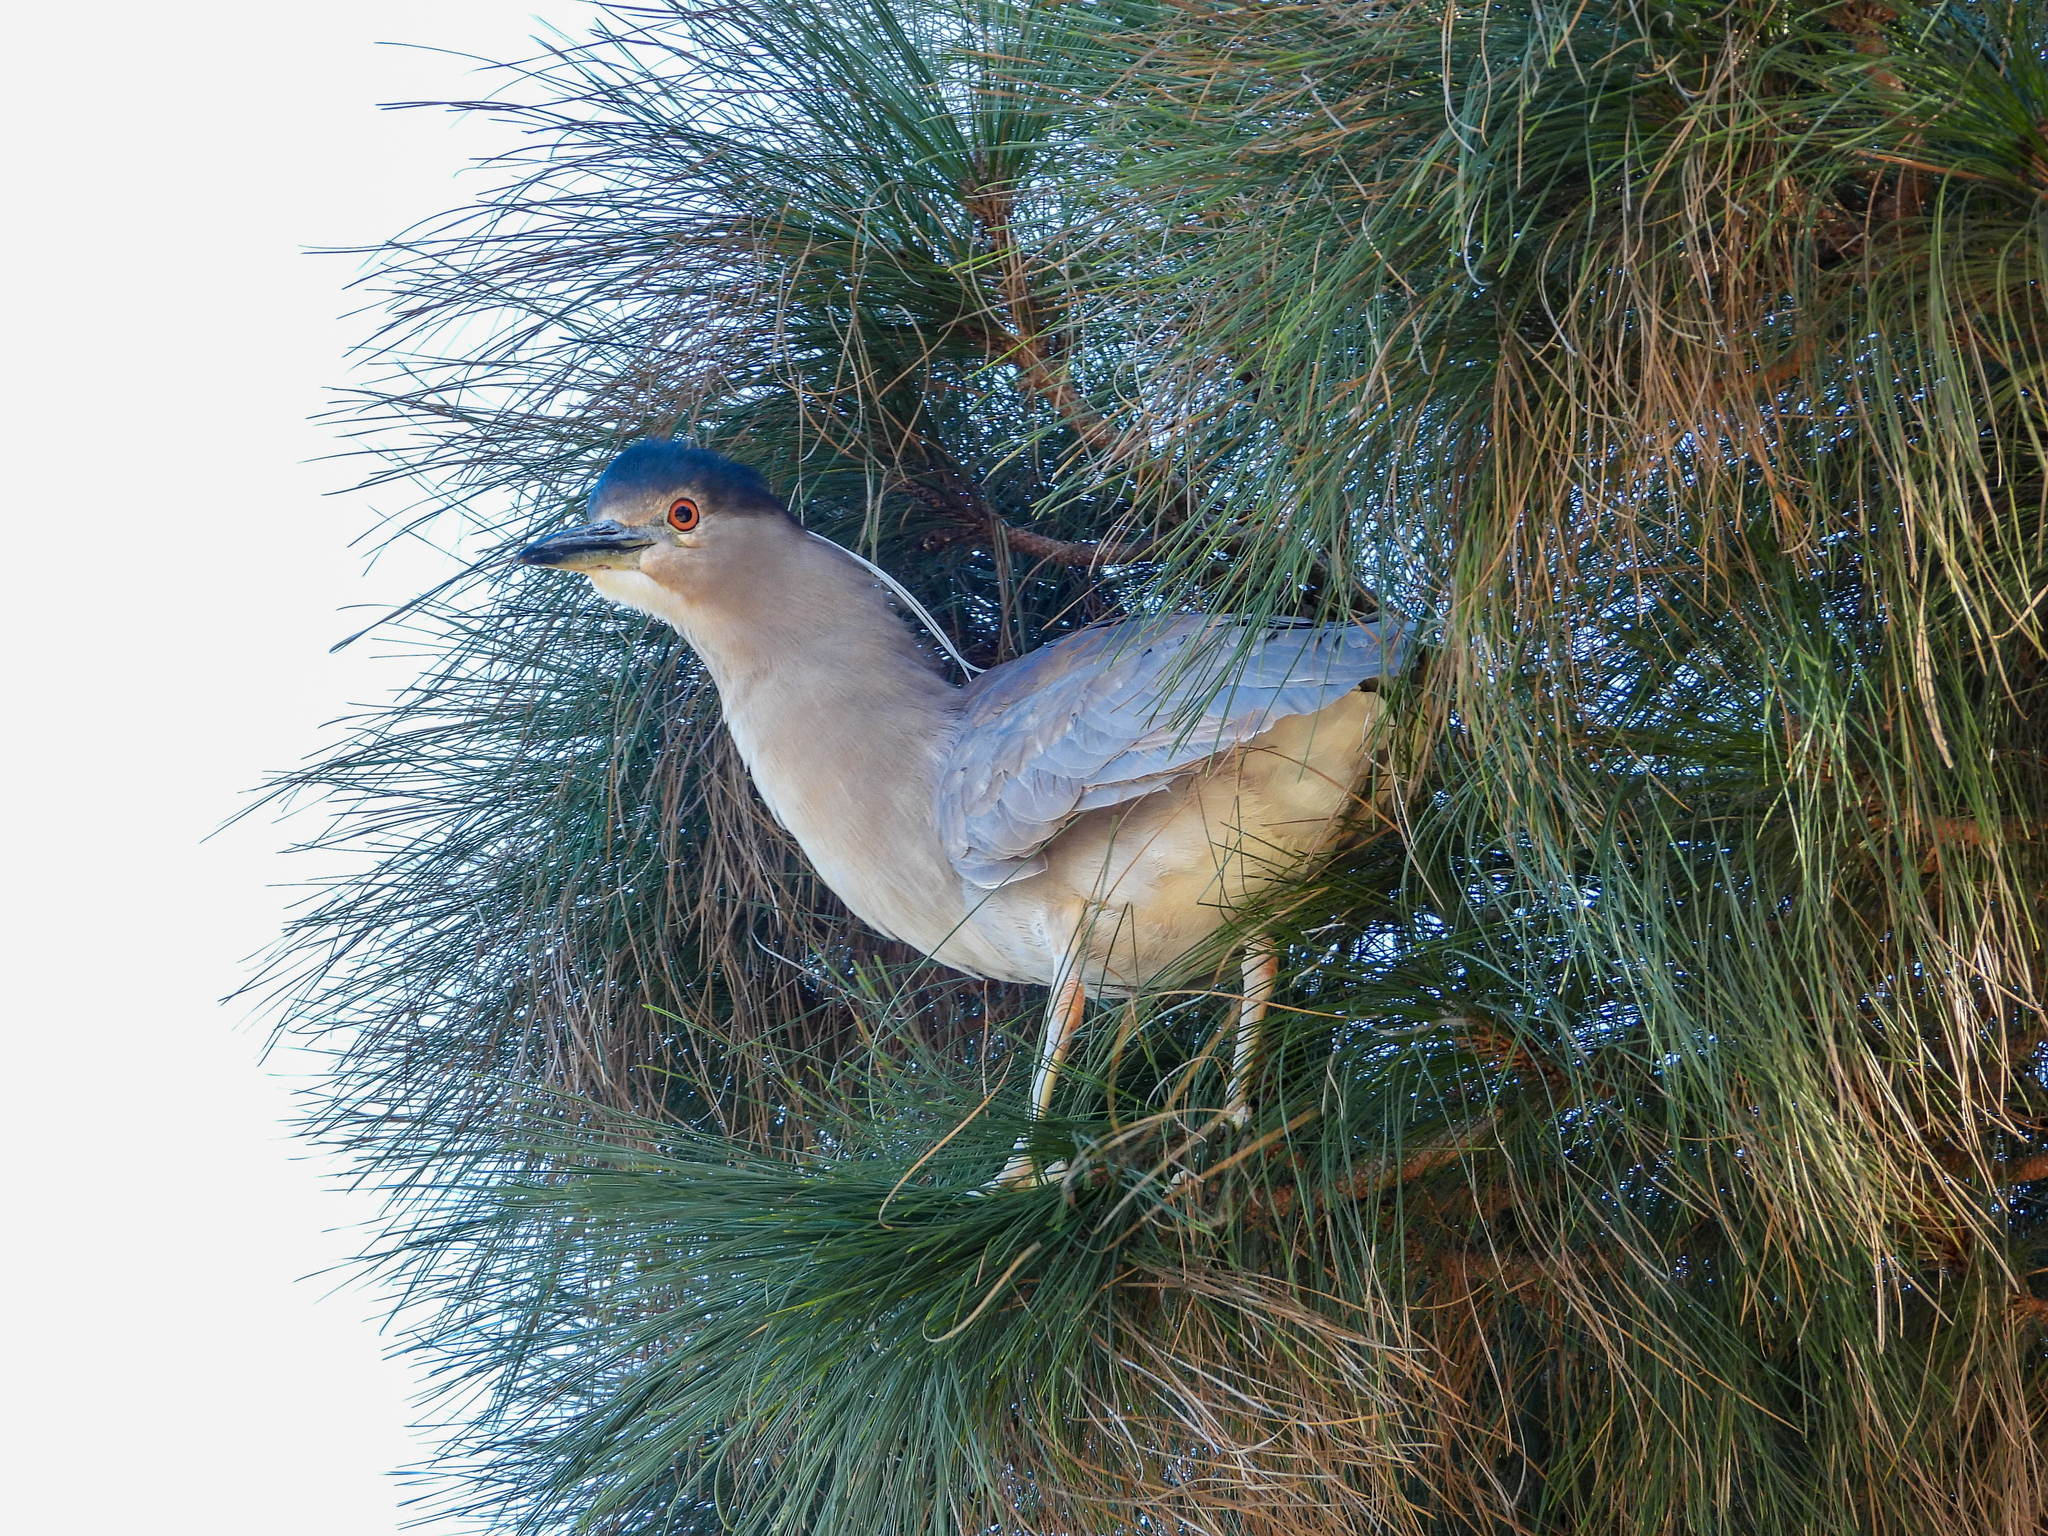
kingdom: Animalia
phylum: Chordata
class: Aves
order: Pelecaniformes
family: Ardeidae
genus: Nycticorax
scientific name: Nycticorax nycticorax
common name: Black-crowned night heron
